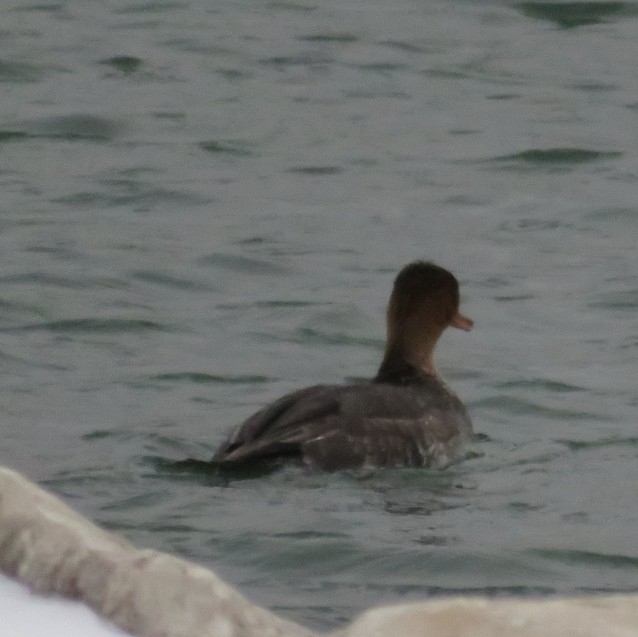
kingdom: Animalia
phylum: Chordata
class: Aves
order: Anseriformes
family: Anatidae
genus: Mergus
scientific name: Mergus serrator
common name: Red-breasted merganser
